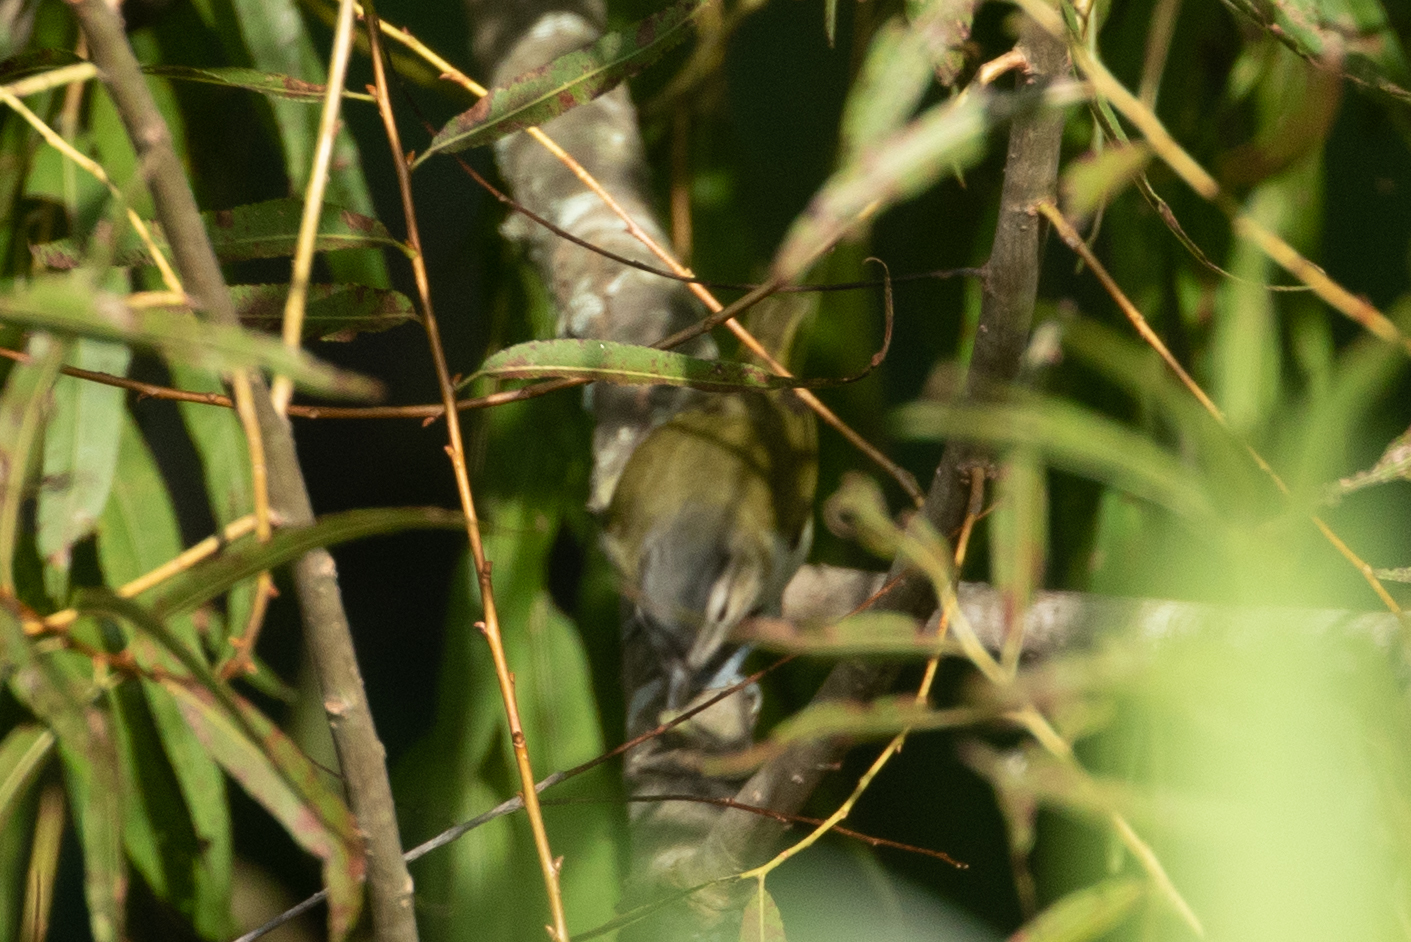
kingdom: Animalia
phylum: Chordata
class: Aves
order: Passeriformes
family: Vireonidae
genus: Vireo
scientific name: Vireo olivaceus
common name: Red-eyed vireo
